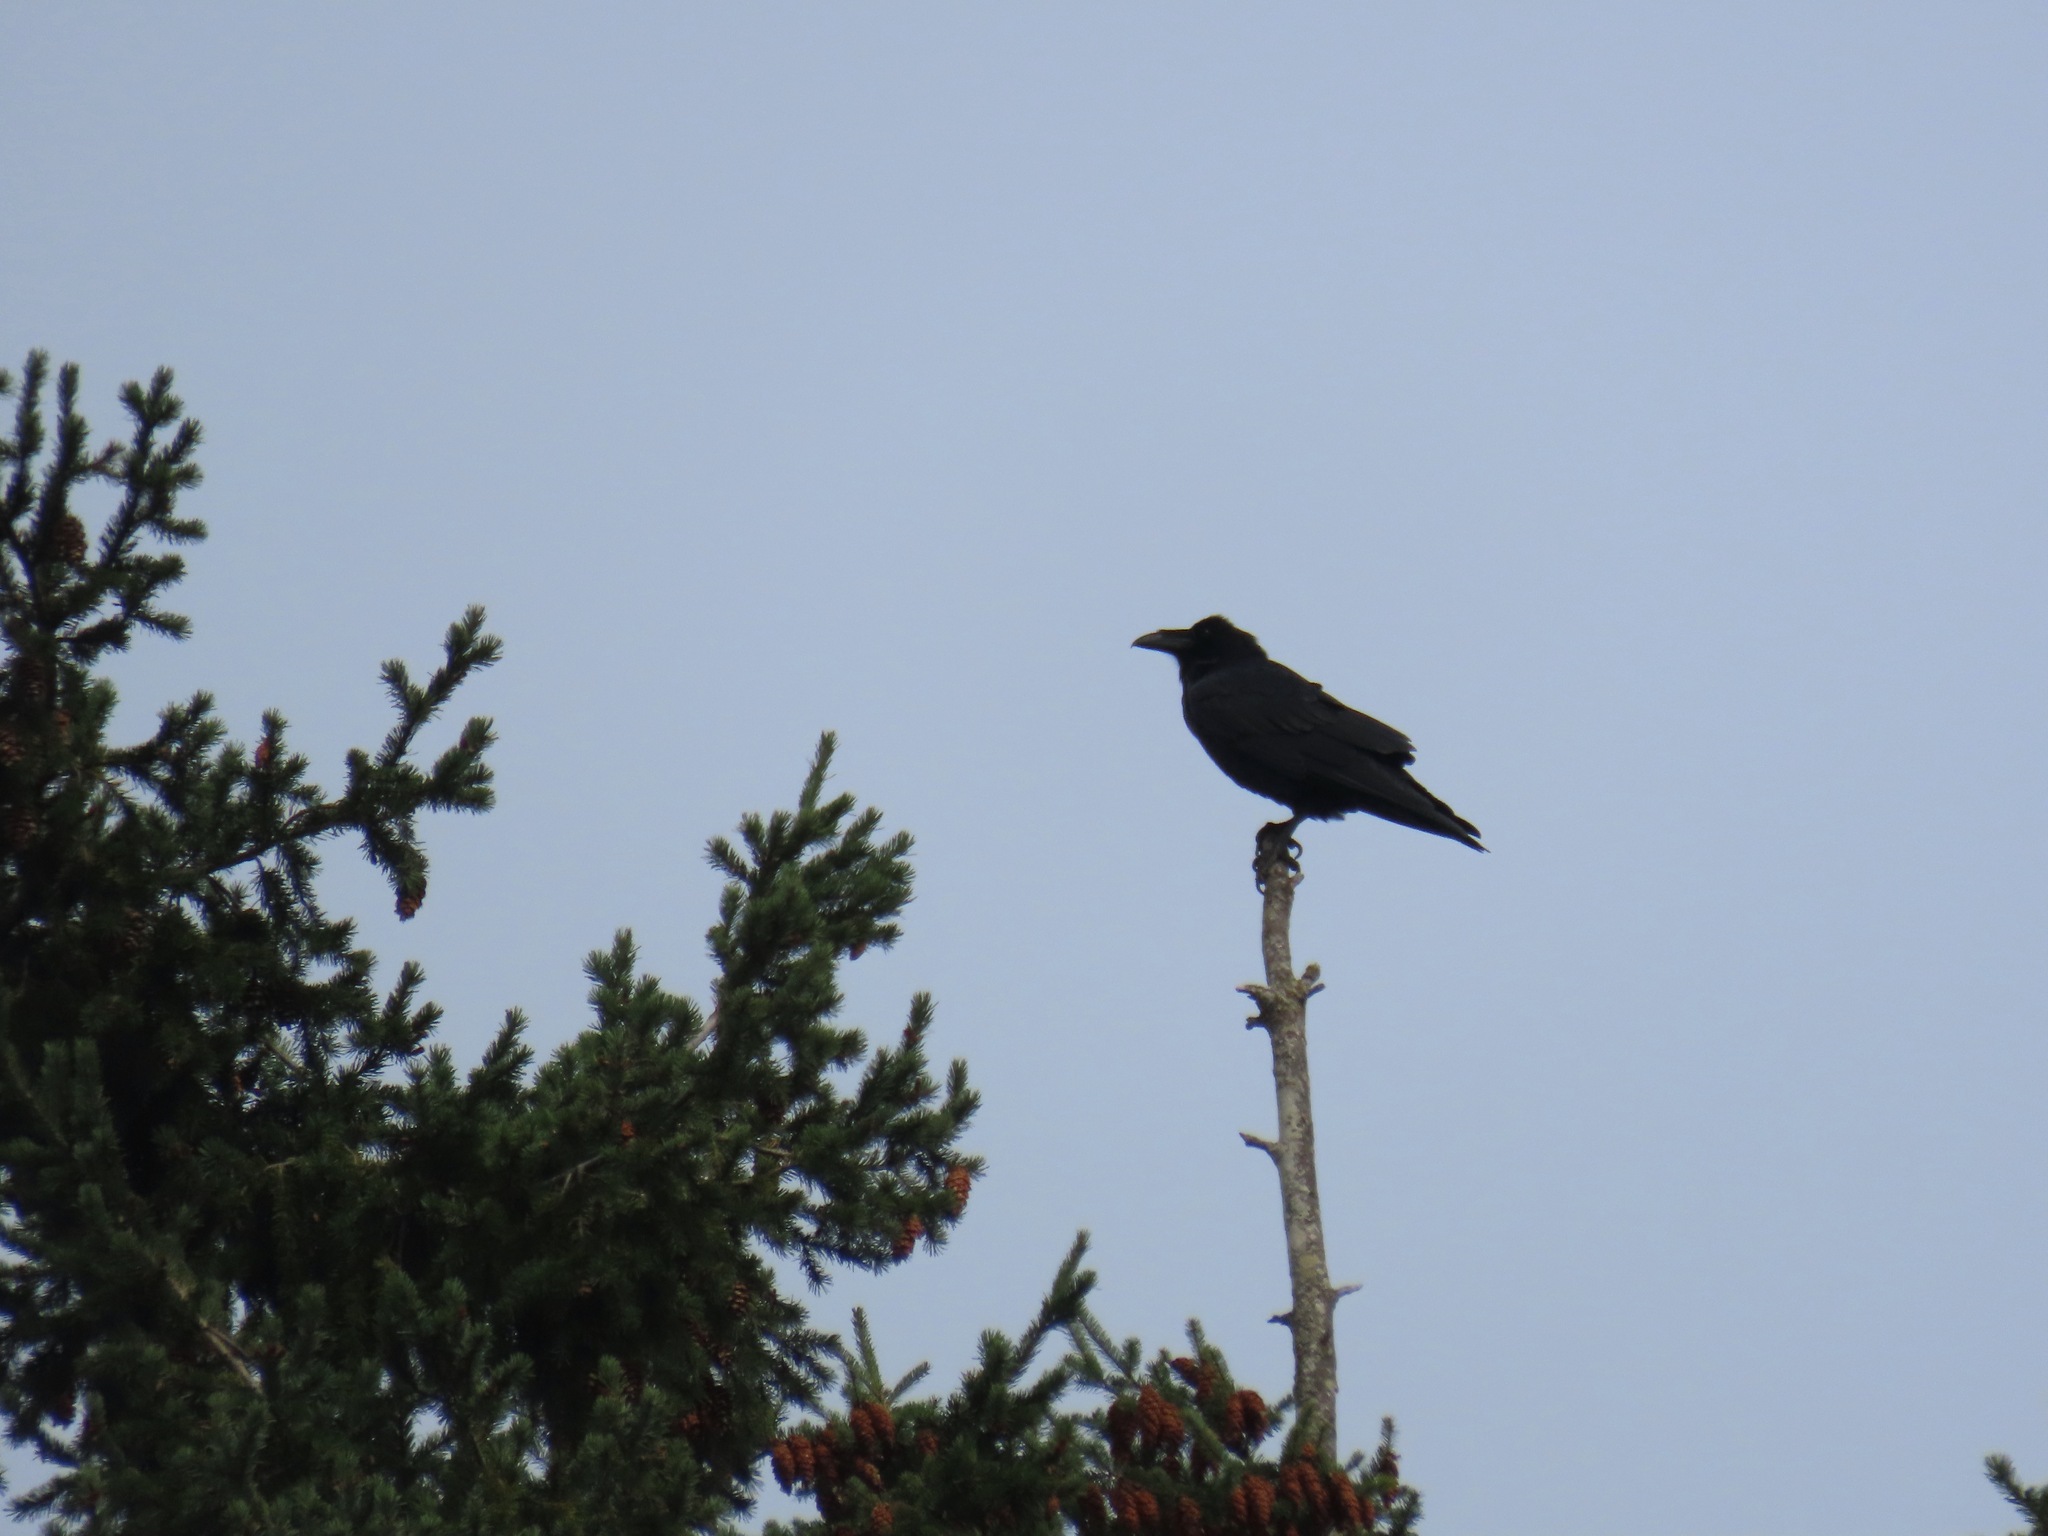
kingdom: Animalia
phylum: Chordata
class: Aves
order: Passeriformes
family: Corvidae
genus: Corvus
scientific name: Corvus corax
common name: Common raven
